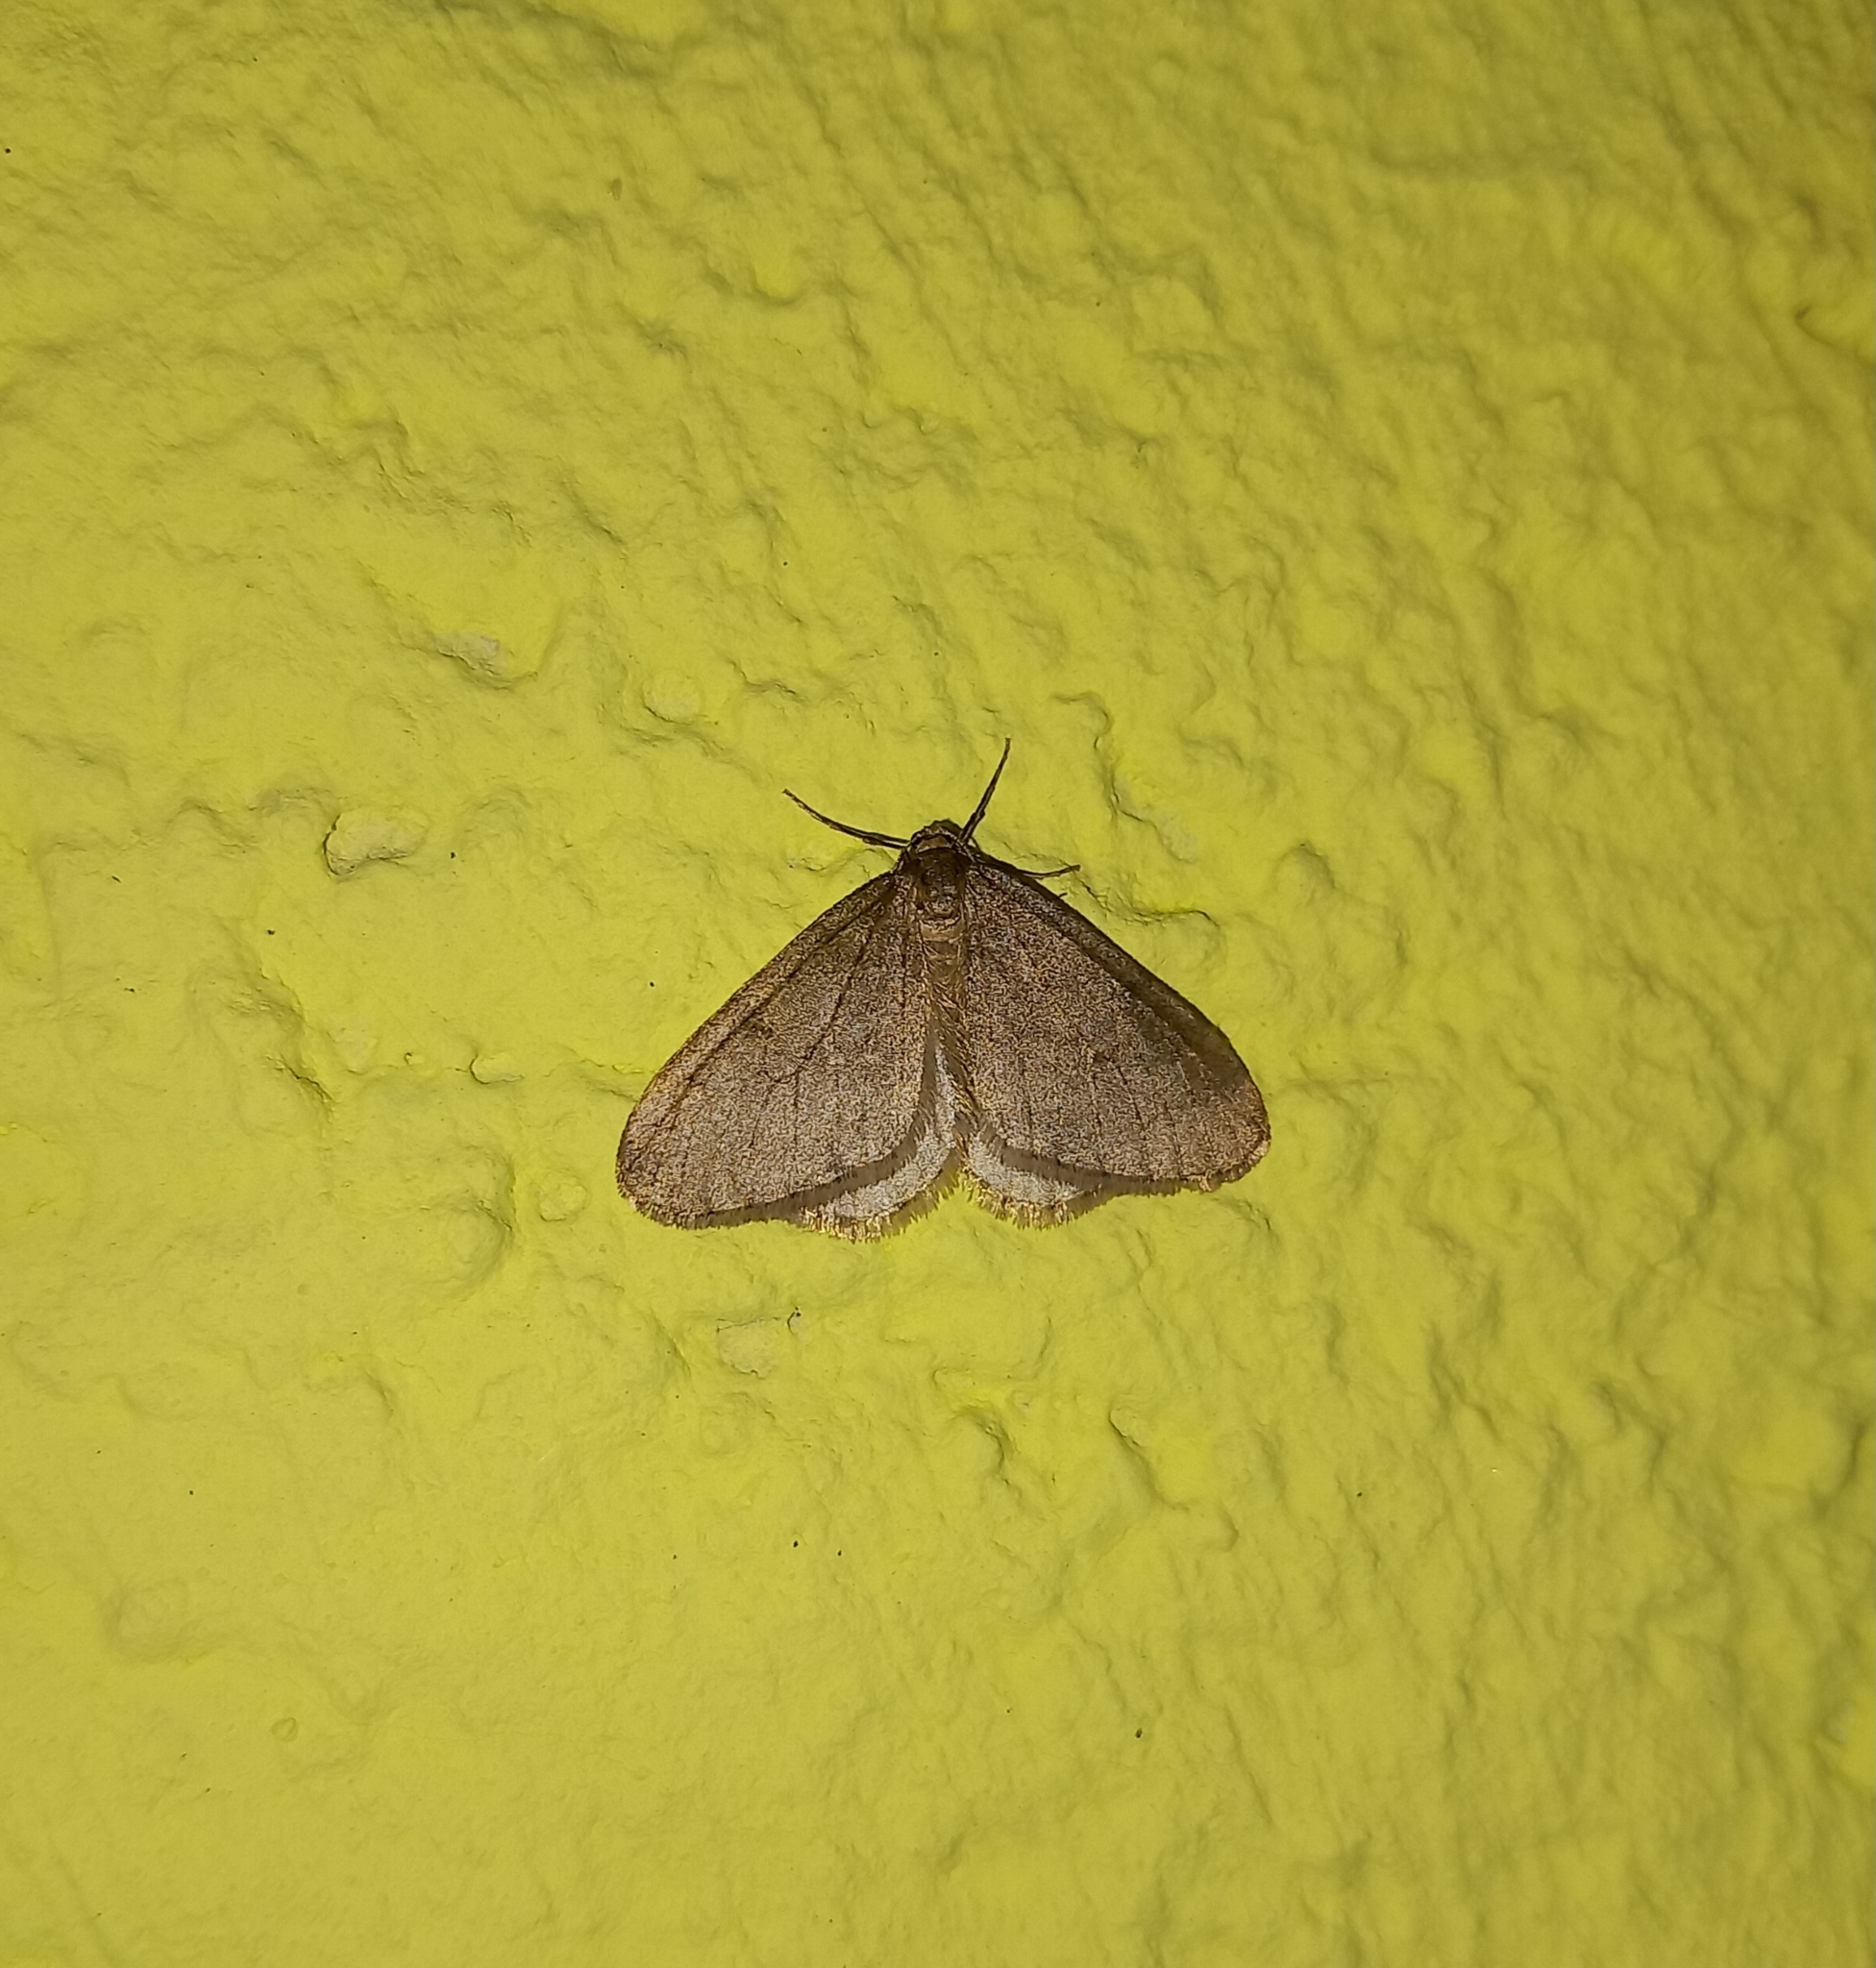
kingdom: Animalia
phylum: Arthropoda
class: Insecta
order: Lepidoptera
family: Geometridae
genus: Operophtera
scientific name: Operophtera brumata
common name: Winter moth
